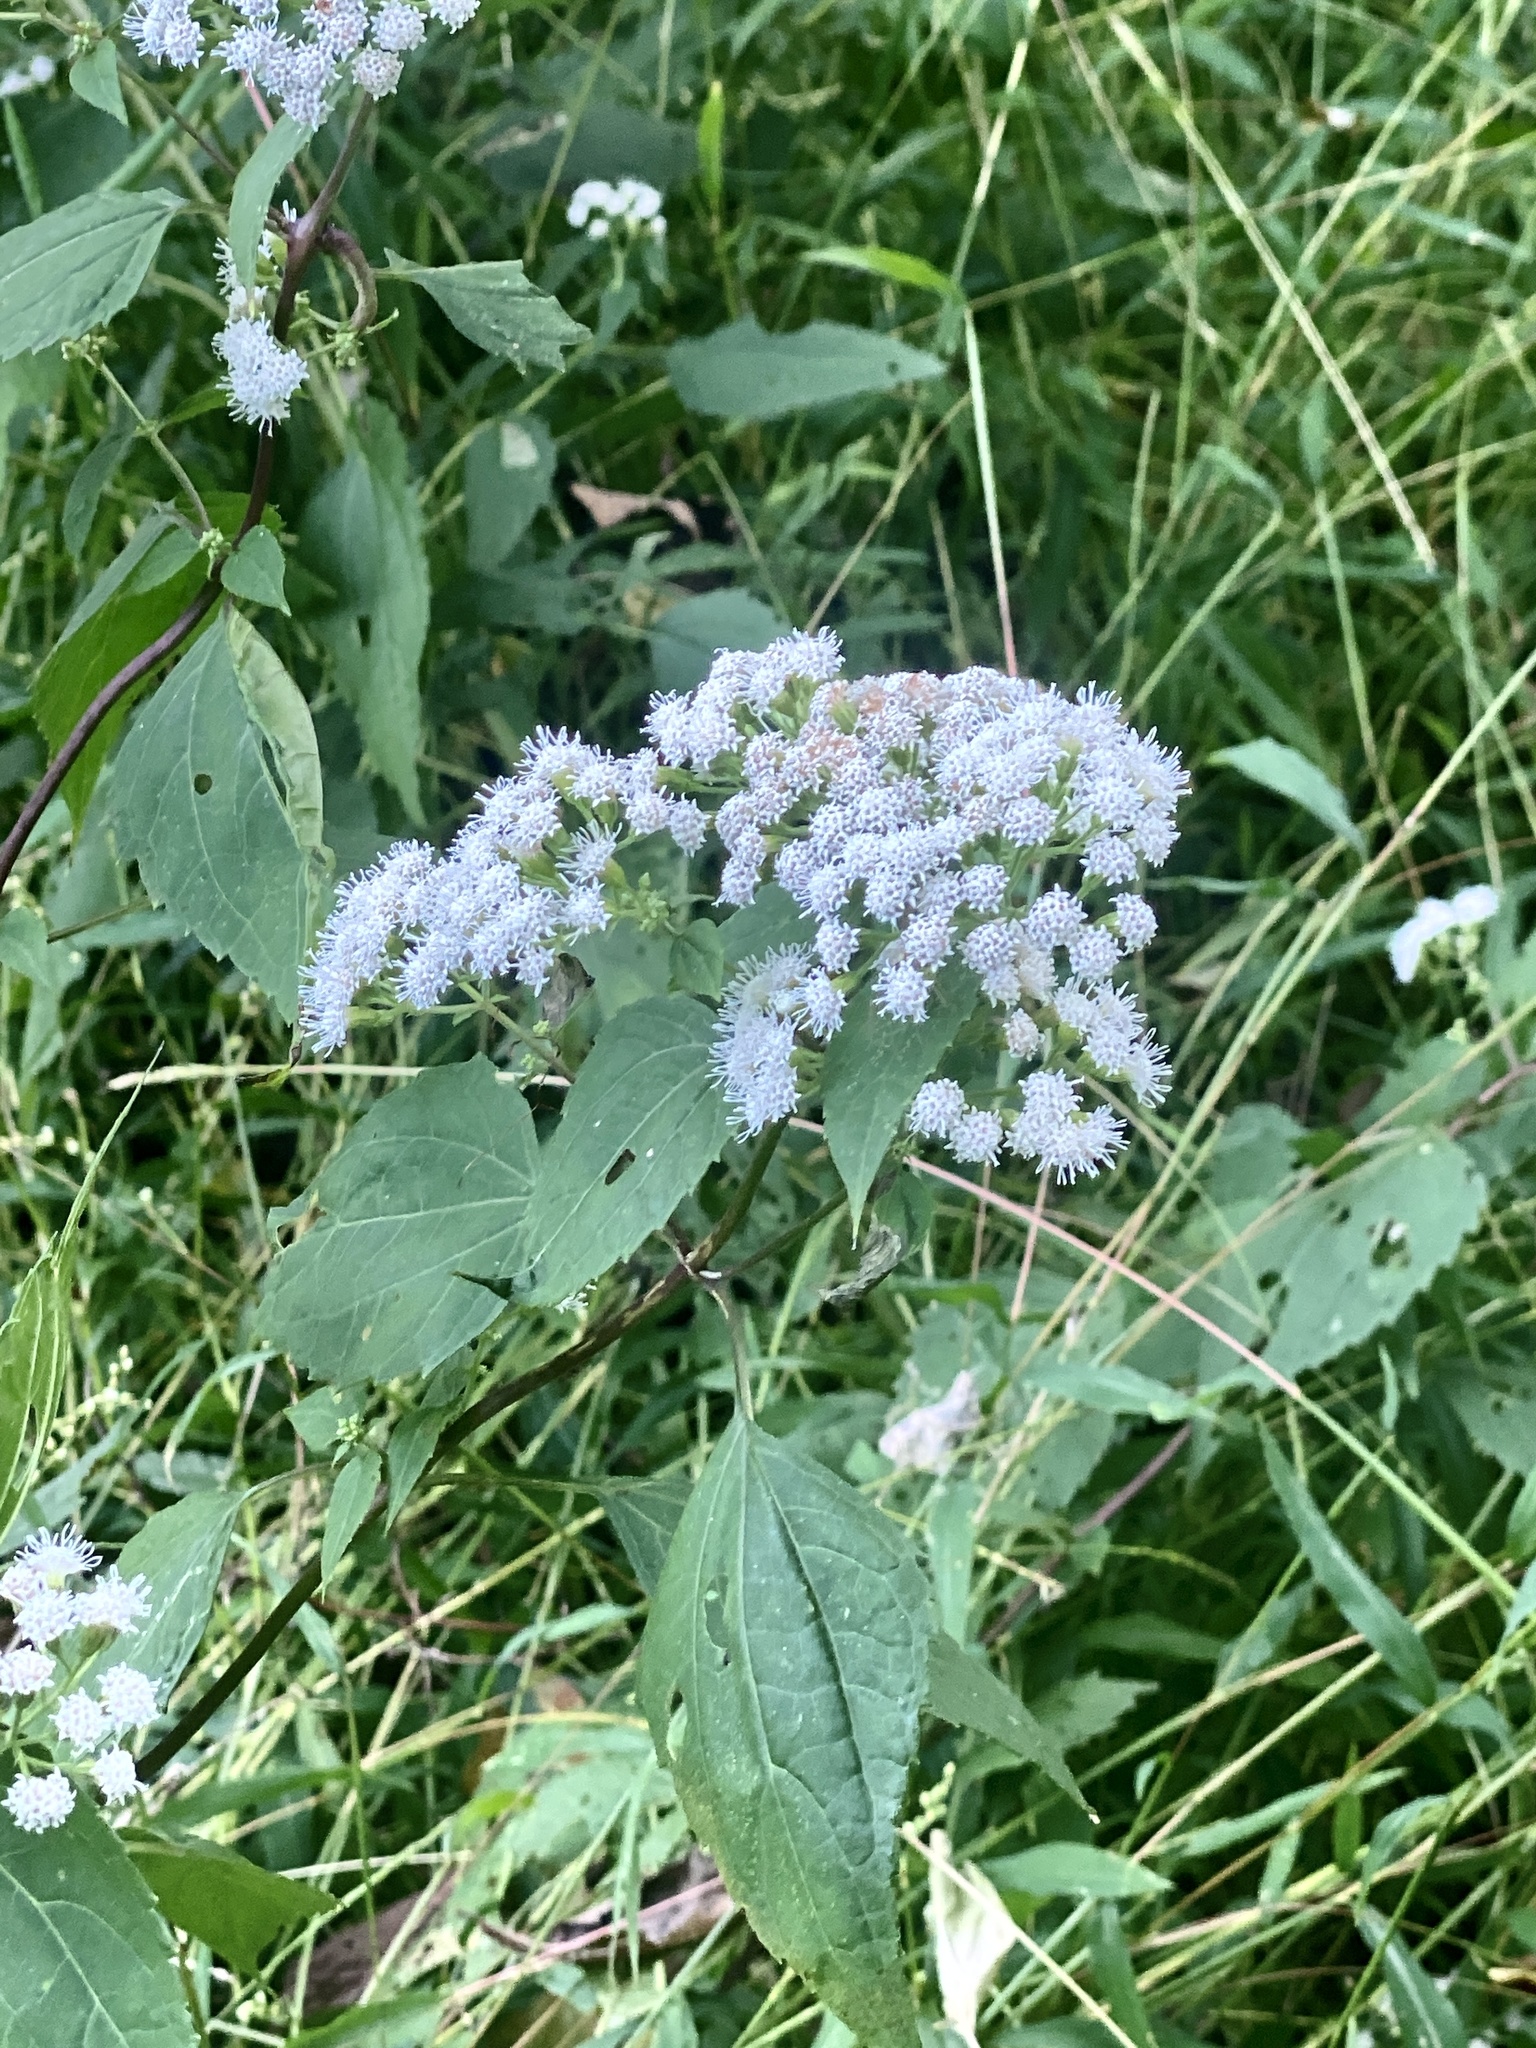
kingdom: Plantae
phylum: Tracheophyta
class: Magnoliopsida
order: Asterales
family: Asteraceae
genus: Ageratina
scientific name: Ageratina altissima
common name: White snakeroot
